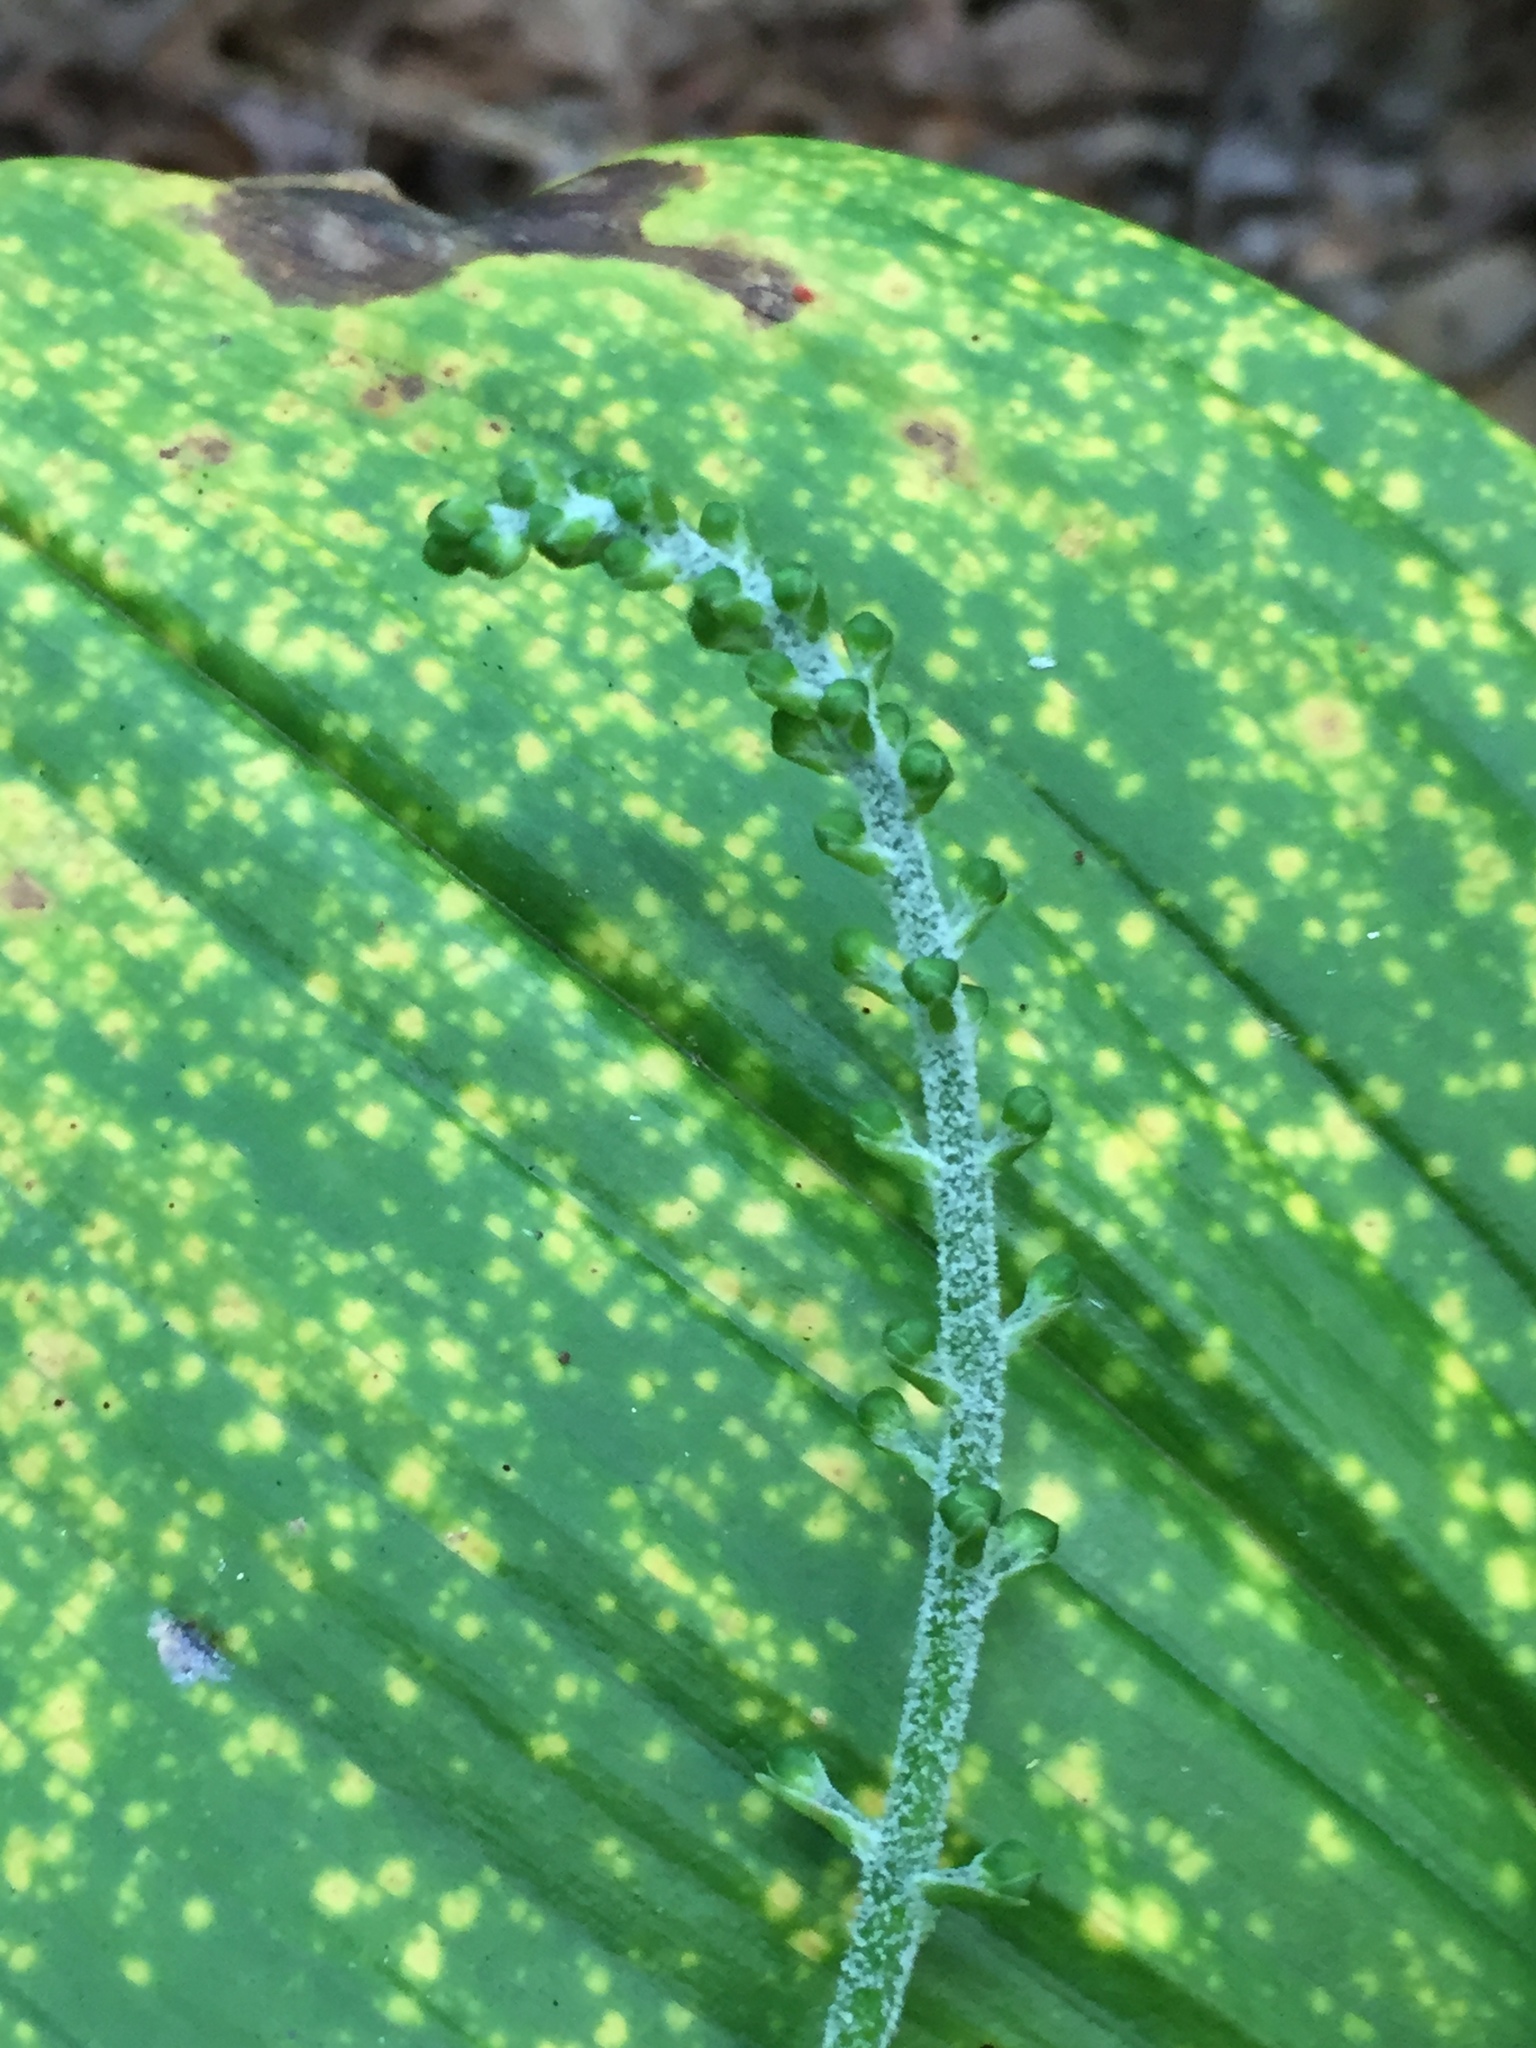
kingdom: Plantae
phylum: Tracheophyta
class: Liliopsida
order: Liliales
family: Melanthiaceae
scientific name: Melanthiaceae
